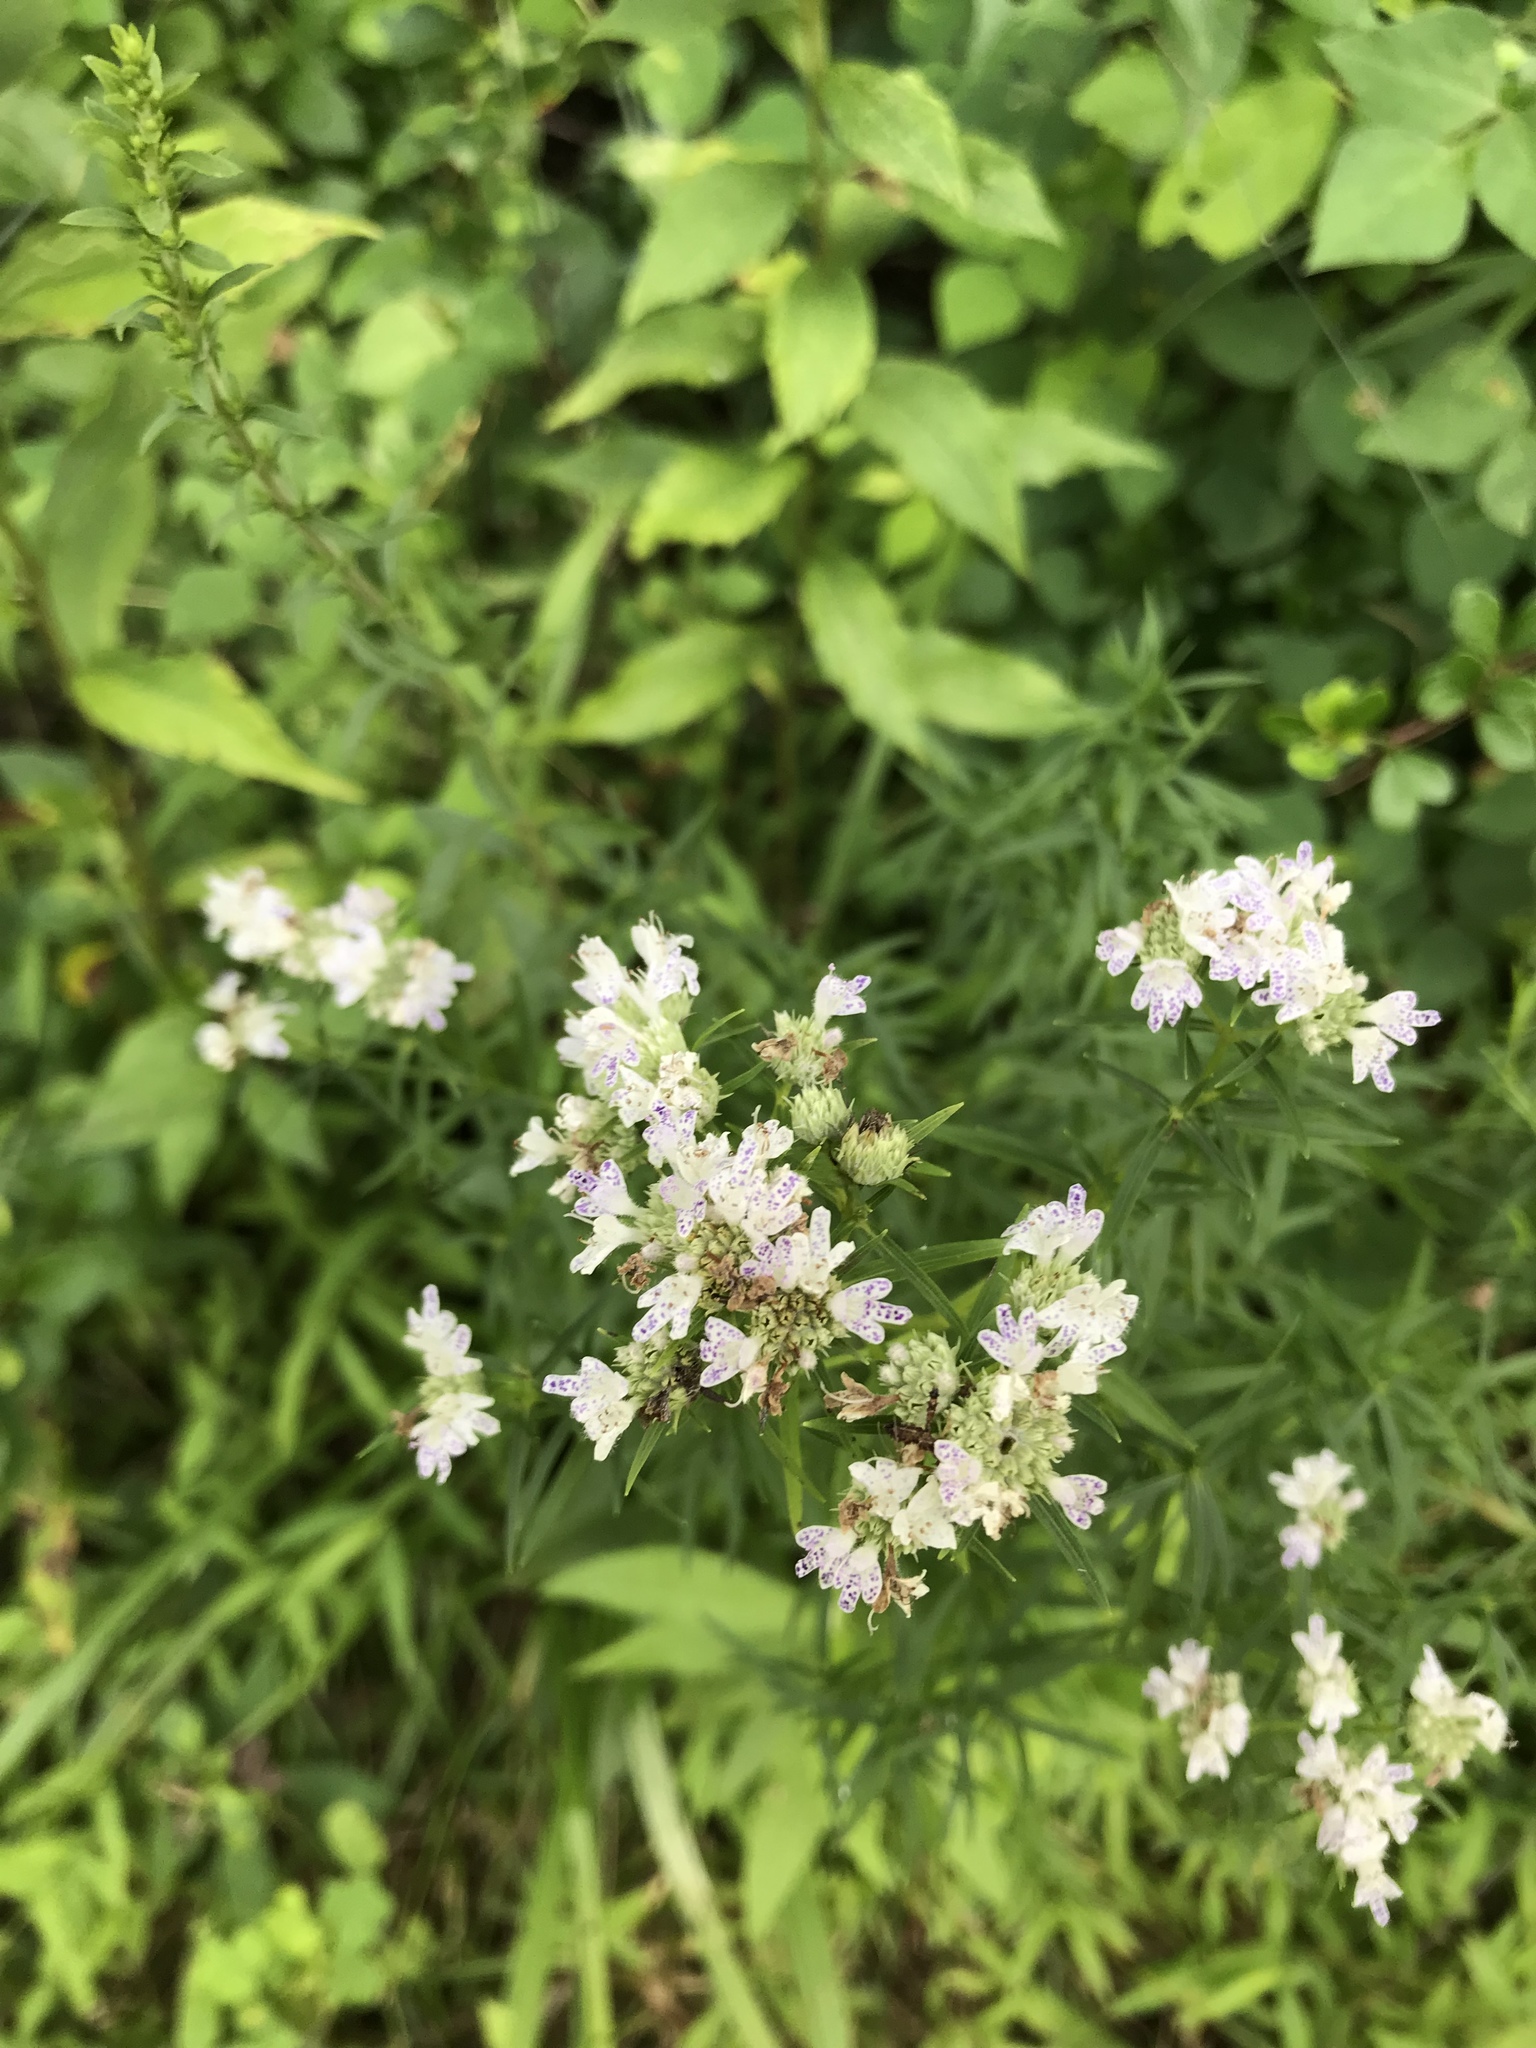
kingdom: Plantae
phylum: Tracheophyta
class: Magnoliopsida
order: Lamiales
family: Lamiaceae
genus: Pycnanthemum
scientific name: Pycnanthemum tenuifolium
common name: Narrow-leaf mountain-mint
